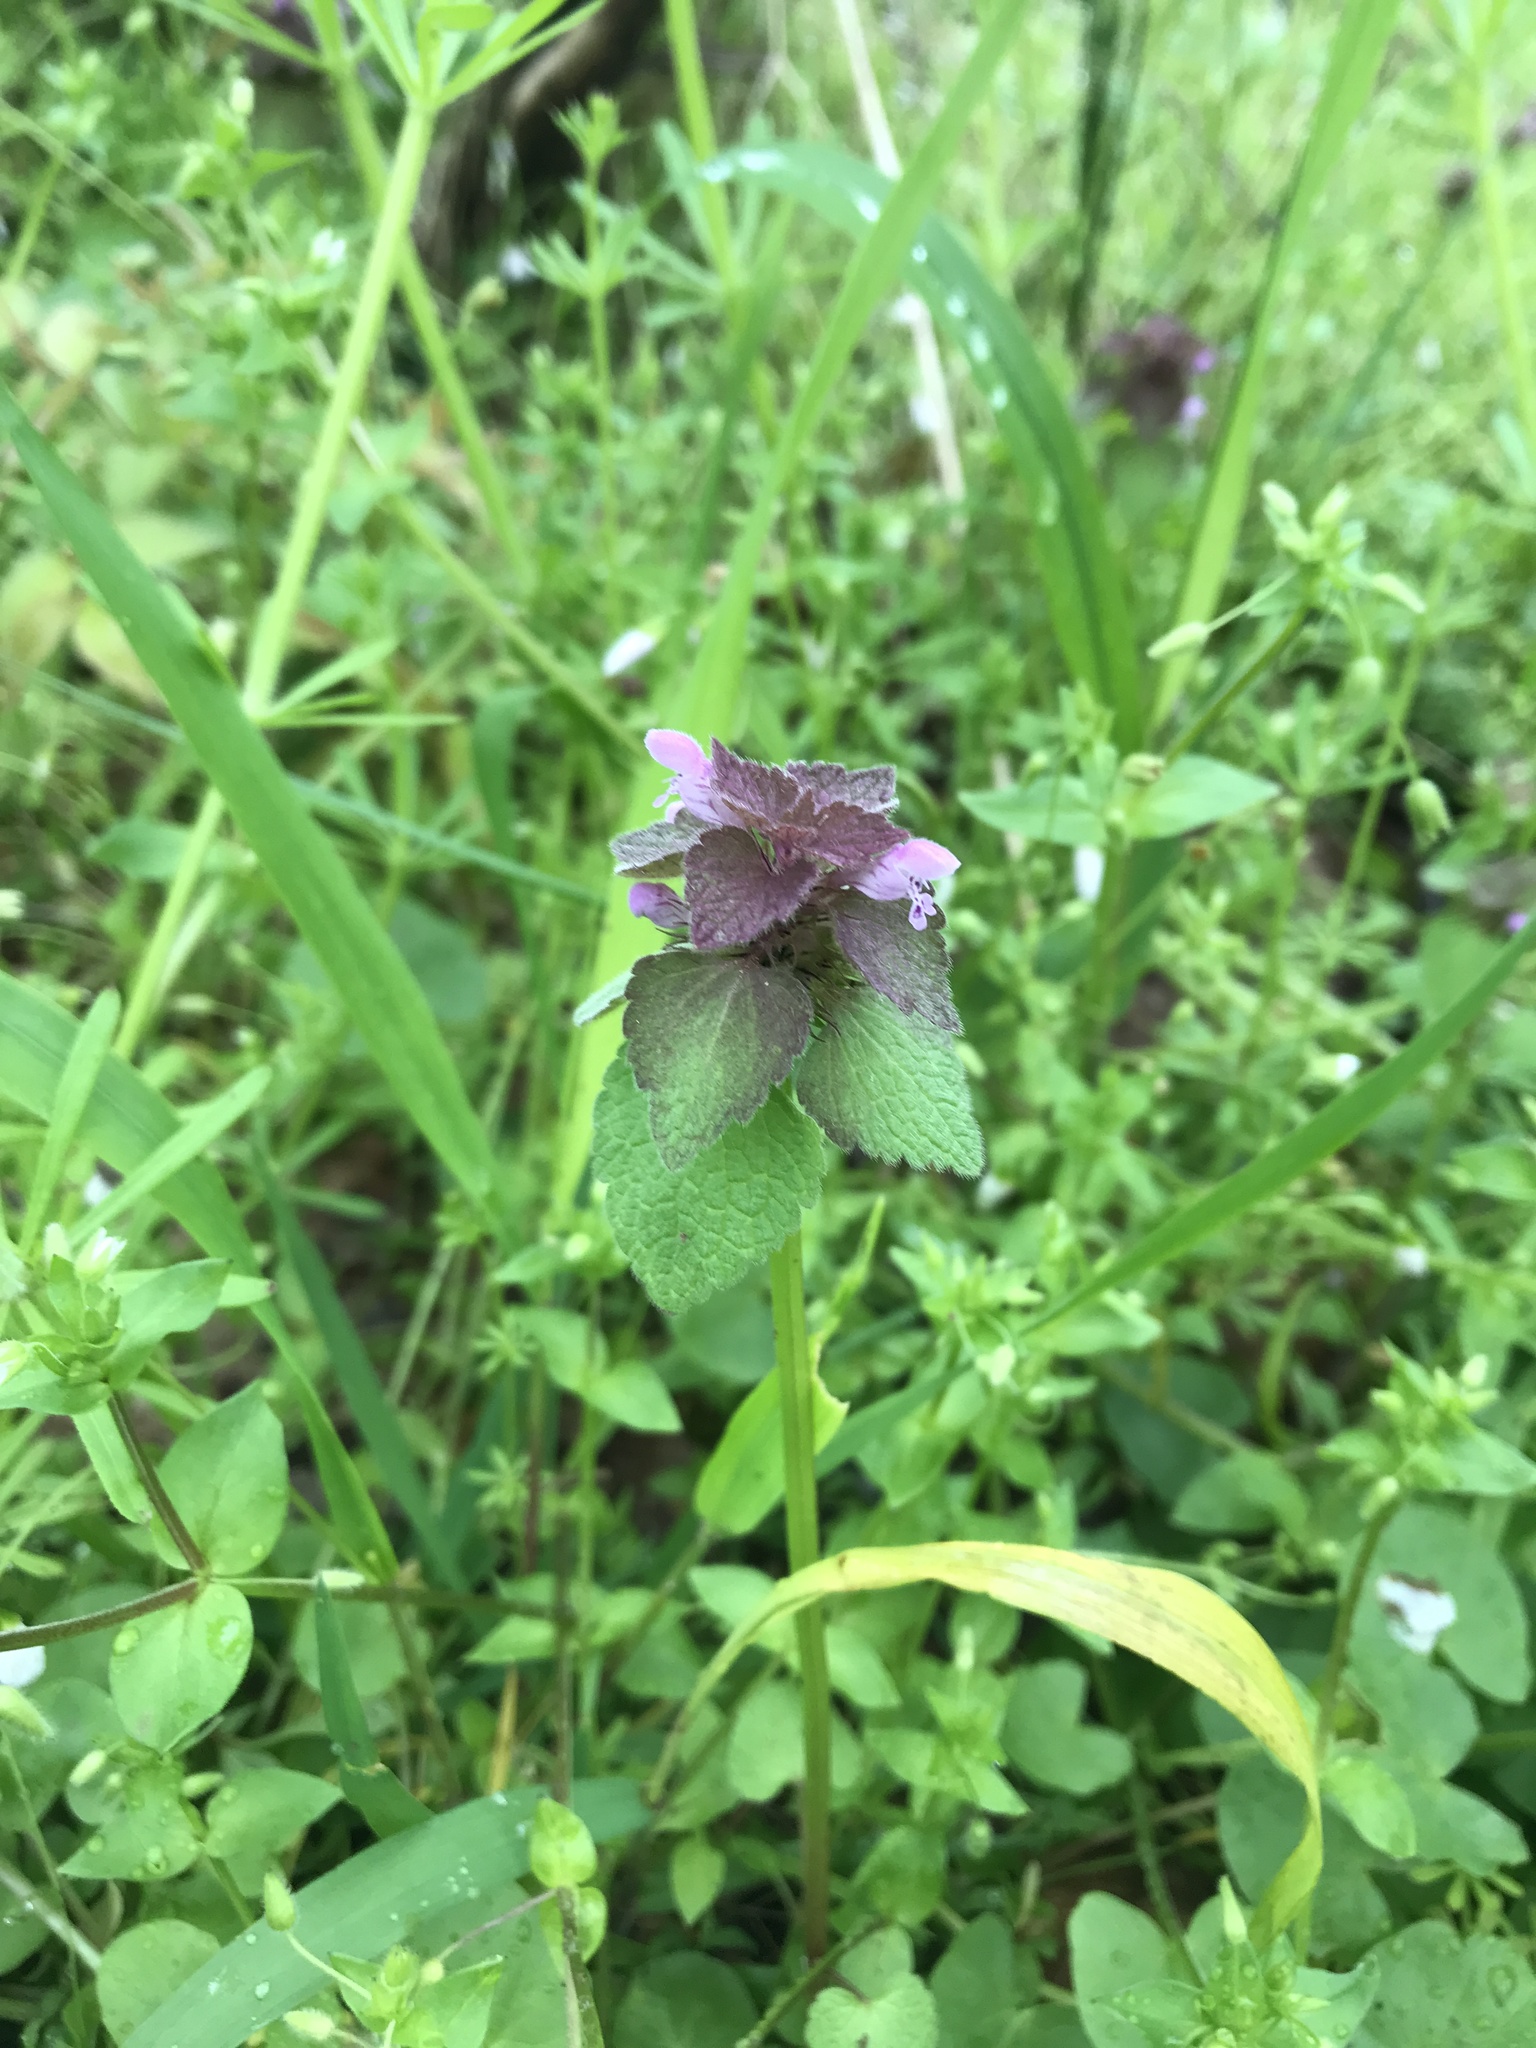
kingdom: Plantae
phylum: Tracheophyta
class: Magnoliopsida
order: Lamiales
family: Lamiaceae
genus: Lamium
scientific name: Lamium purpureum
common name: Red dead-nettle
